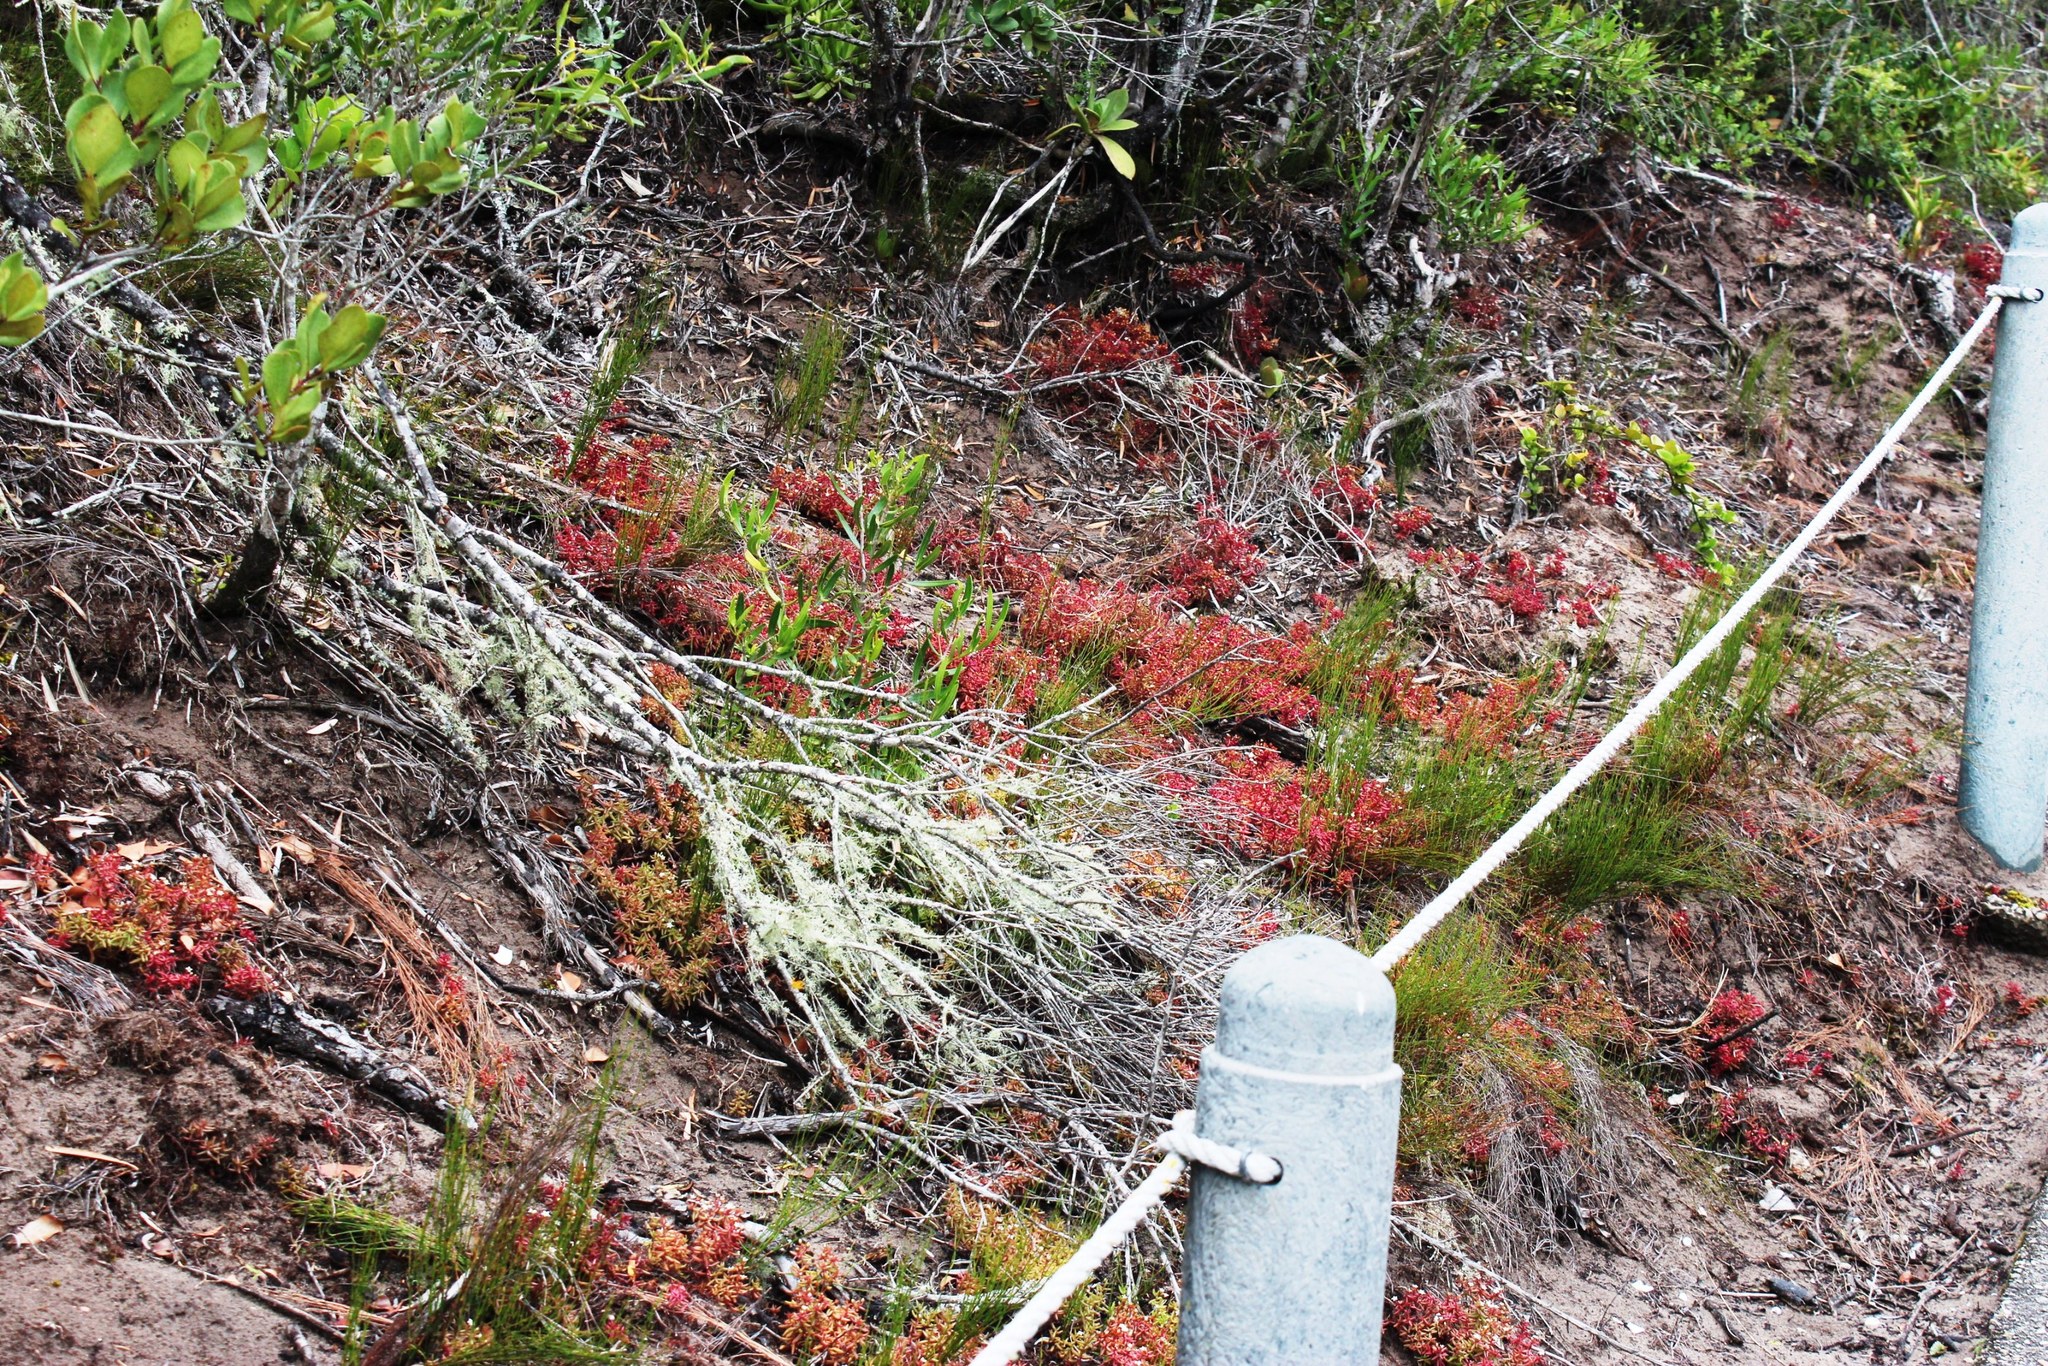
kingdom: Plantae
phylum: Tracheophyta
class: Magnoliopsida
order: Saxifragales
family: Crassulaceae
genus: Crassula
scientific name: Crassula expansa
